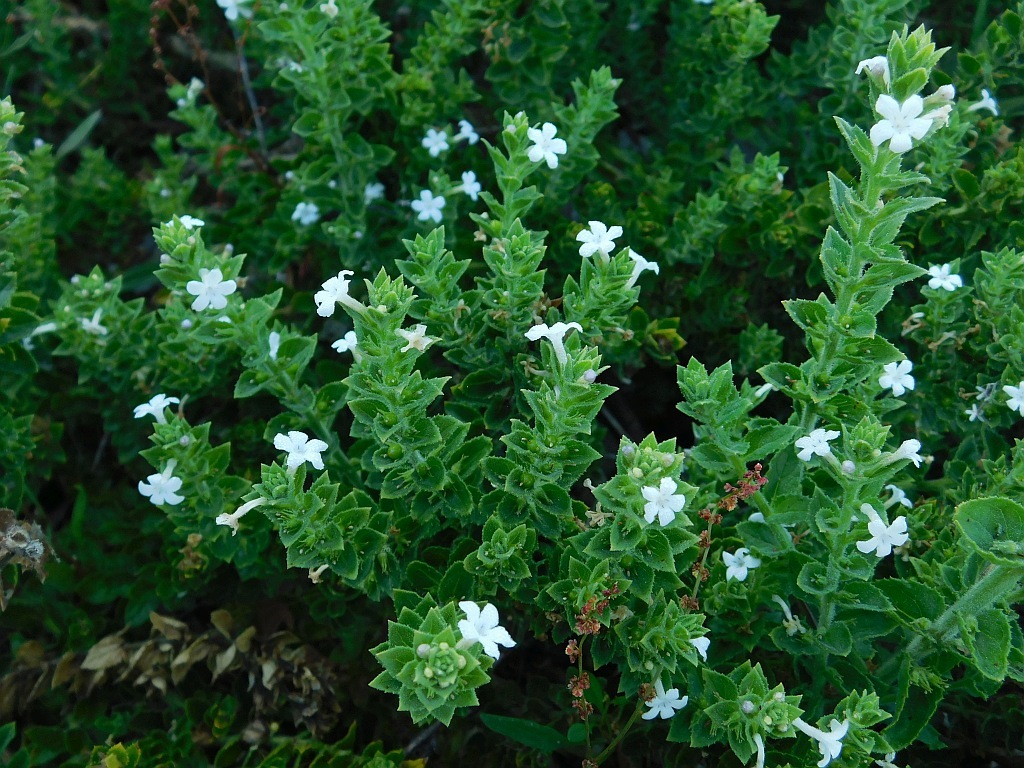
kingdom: Plantae
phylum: Tracheophyta
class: Magnoliopsida
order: Lamiales
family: Scrophulariaceae
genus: Oftia
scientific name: Oftia africana
